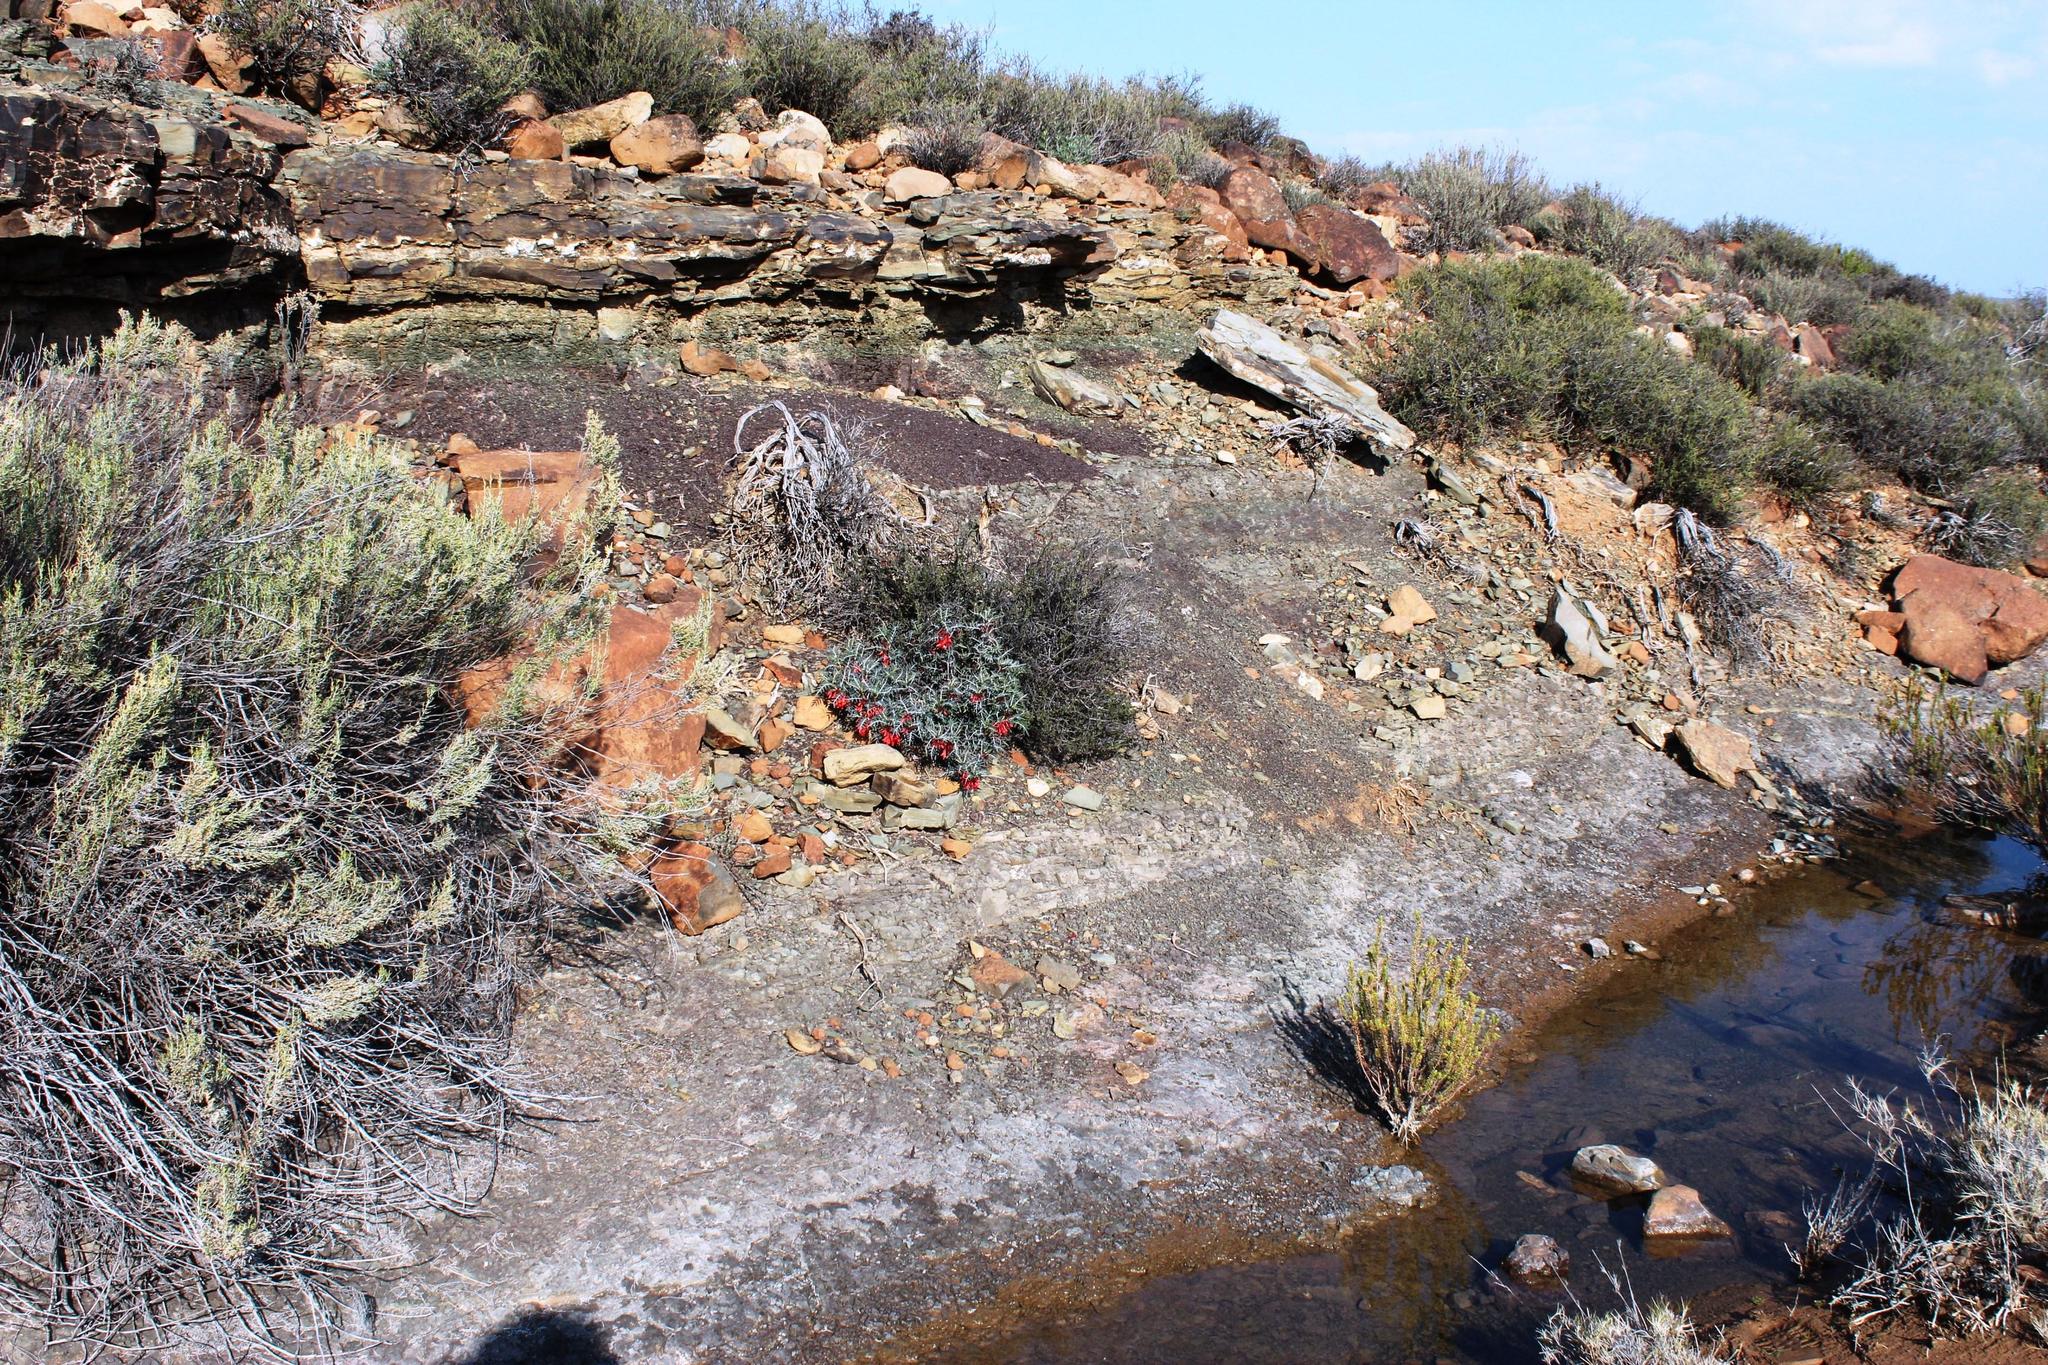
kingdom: Plantae
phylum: Tracheophyta
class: Magnoliopsida
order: Fabales
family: Fabaceae
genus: Lessertia
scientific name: Lessertia frutescens
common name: Balloon-pea
